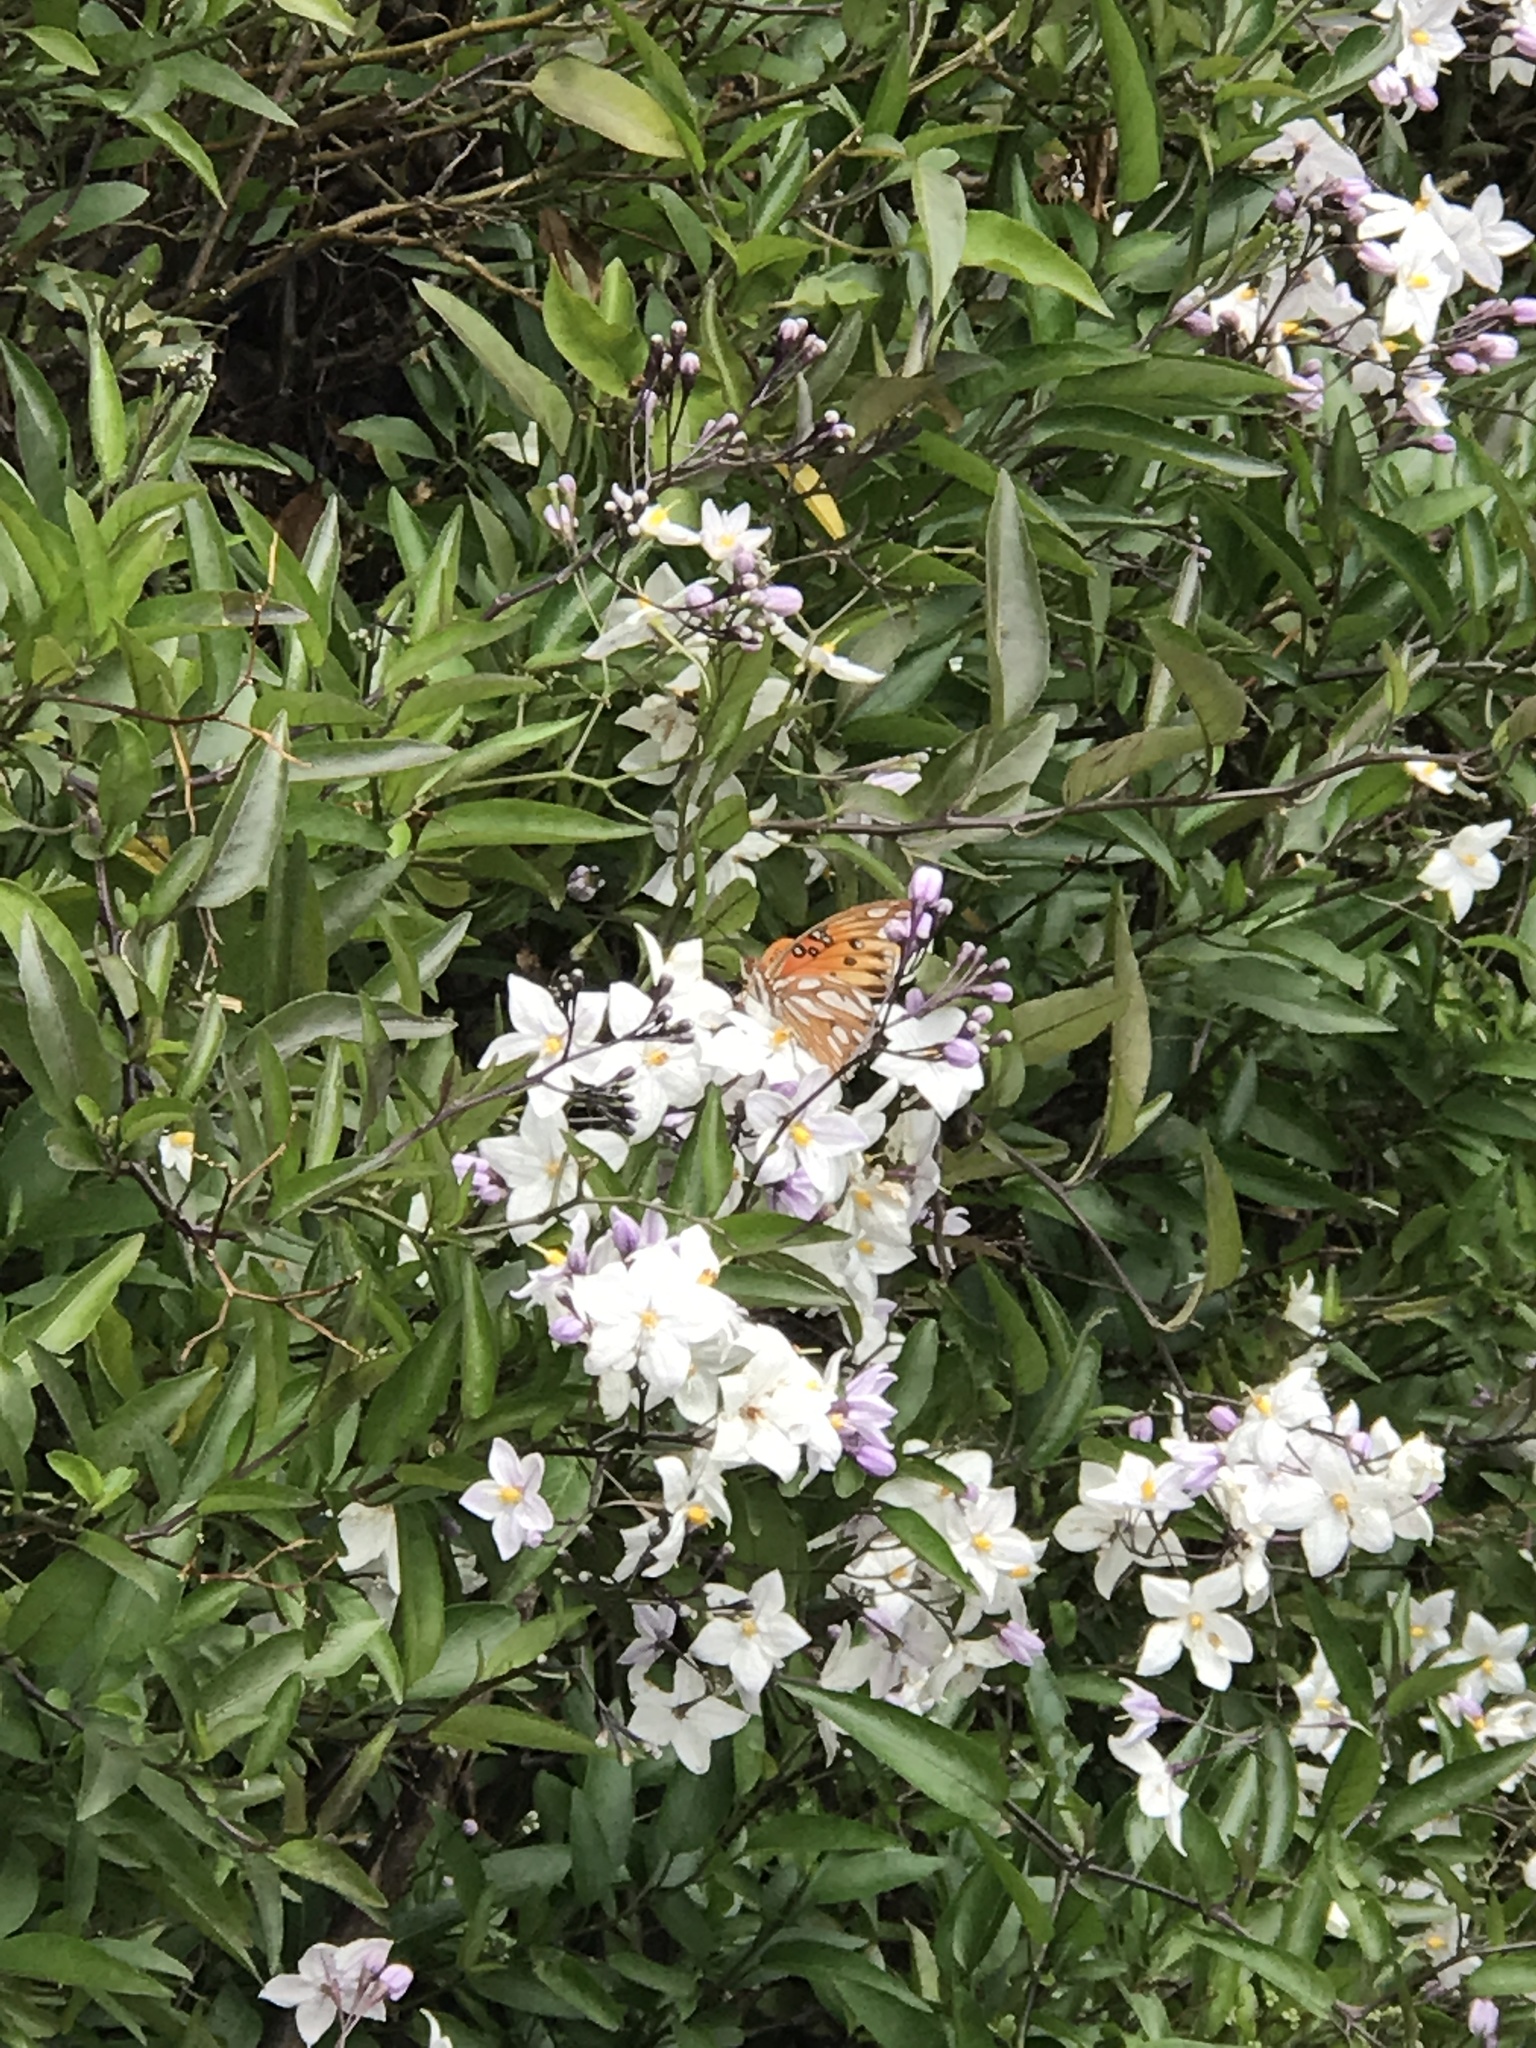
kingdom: Animalia
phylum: Arthropoda
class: Insecta
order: Lepidoptera
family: Nymphalidae
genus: Dione
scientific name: Dione vanillae
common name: Gulf fritillary
